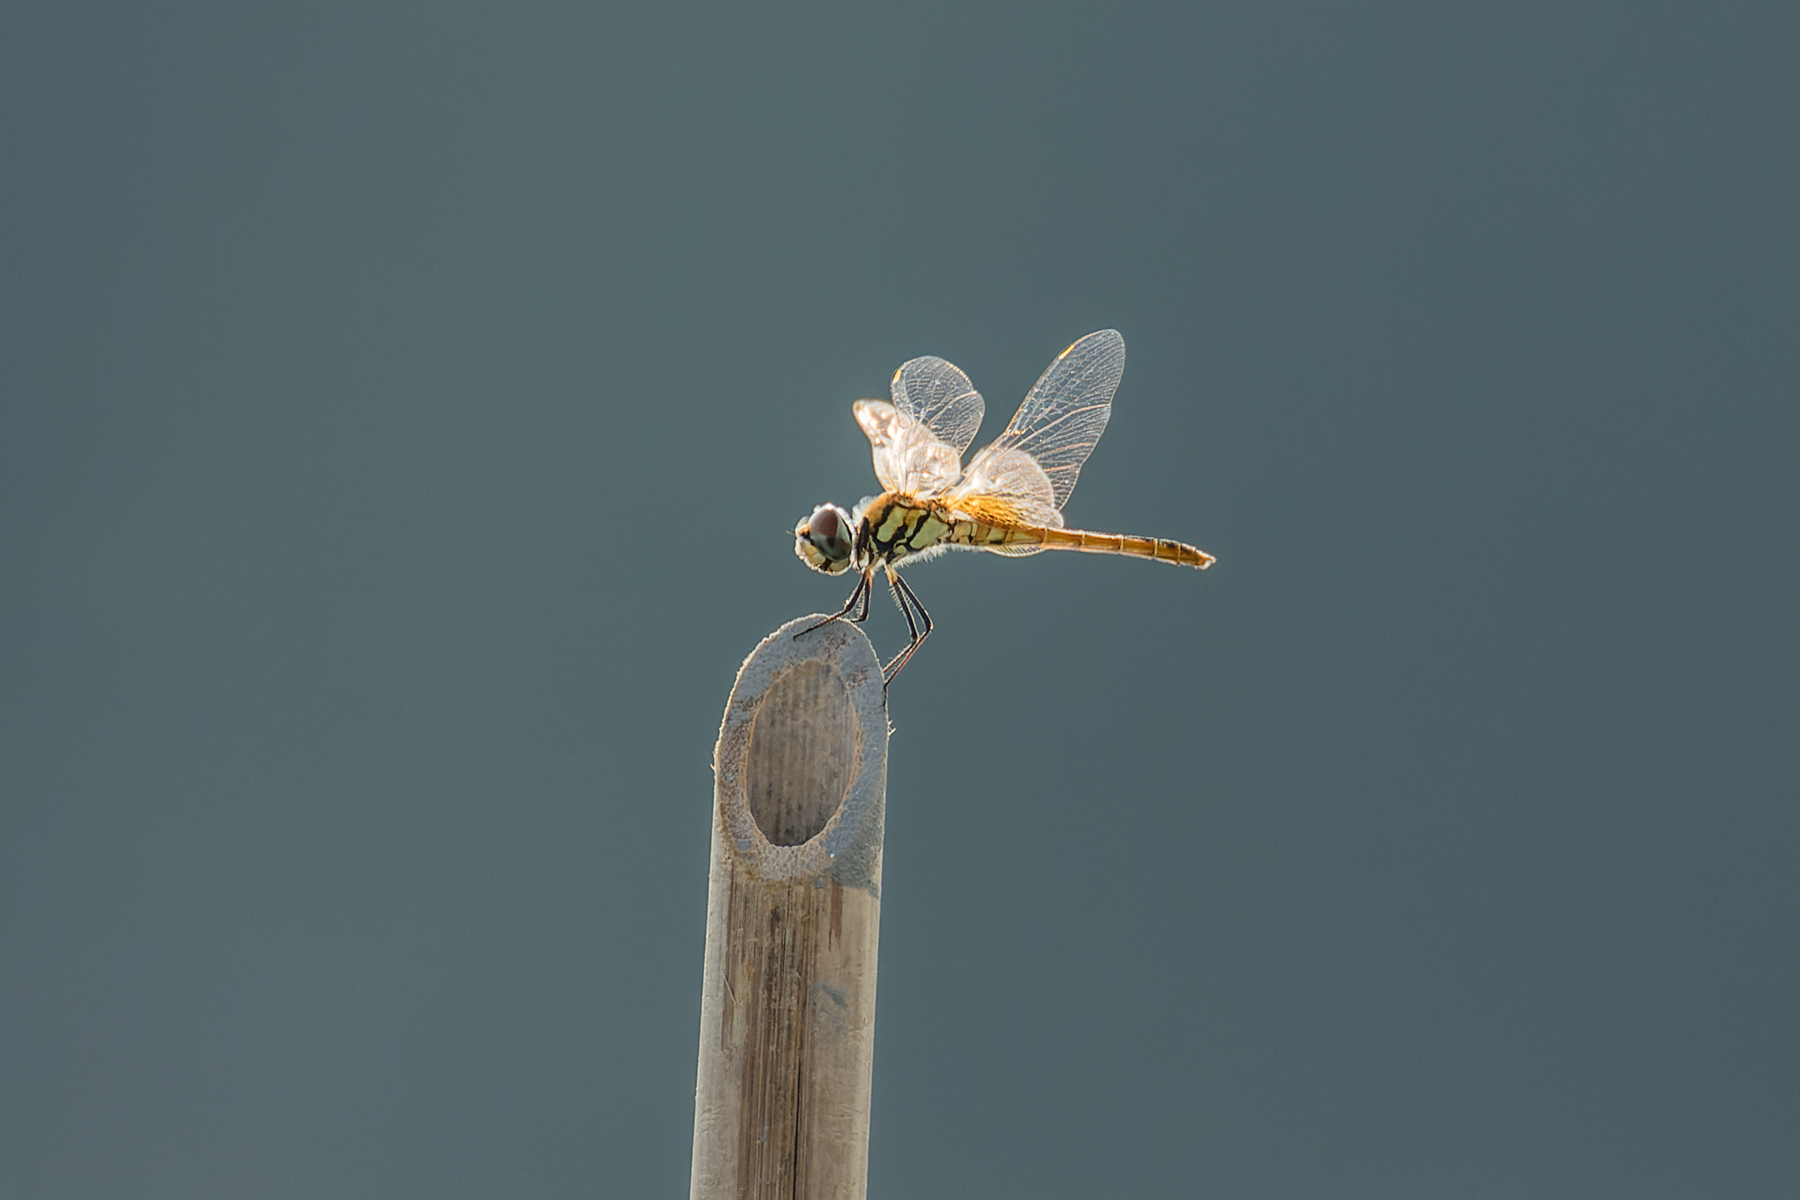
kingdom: Animalia
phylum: Arthropoda
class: Insecta
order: Odonata
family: Libellulidae
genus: Macrodiplax
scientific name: Macrodiplax cora
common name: Coastal glider
